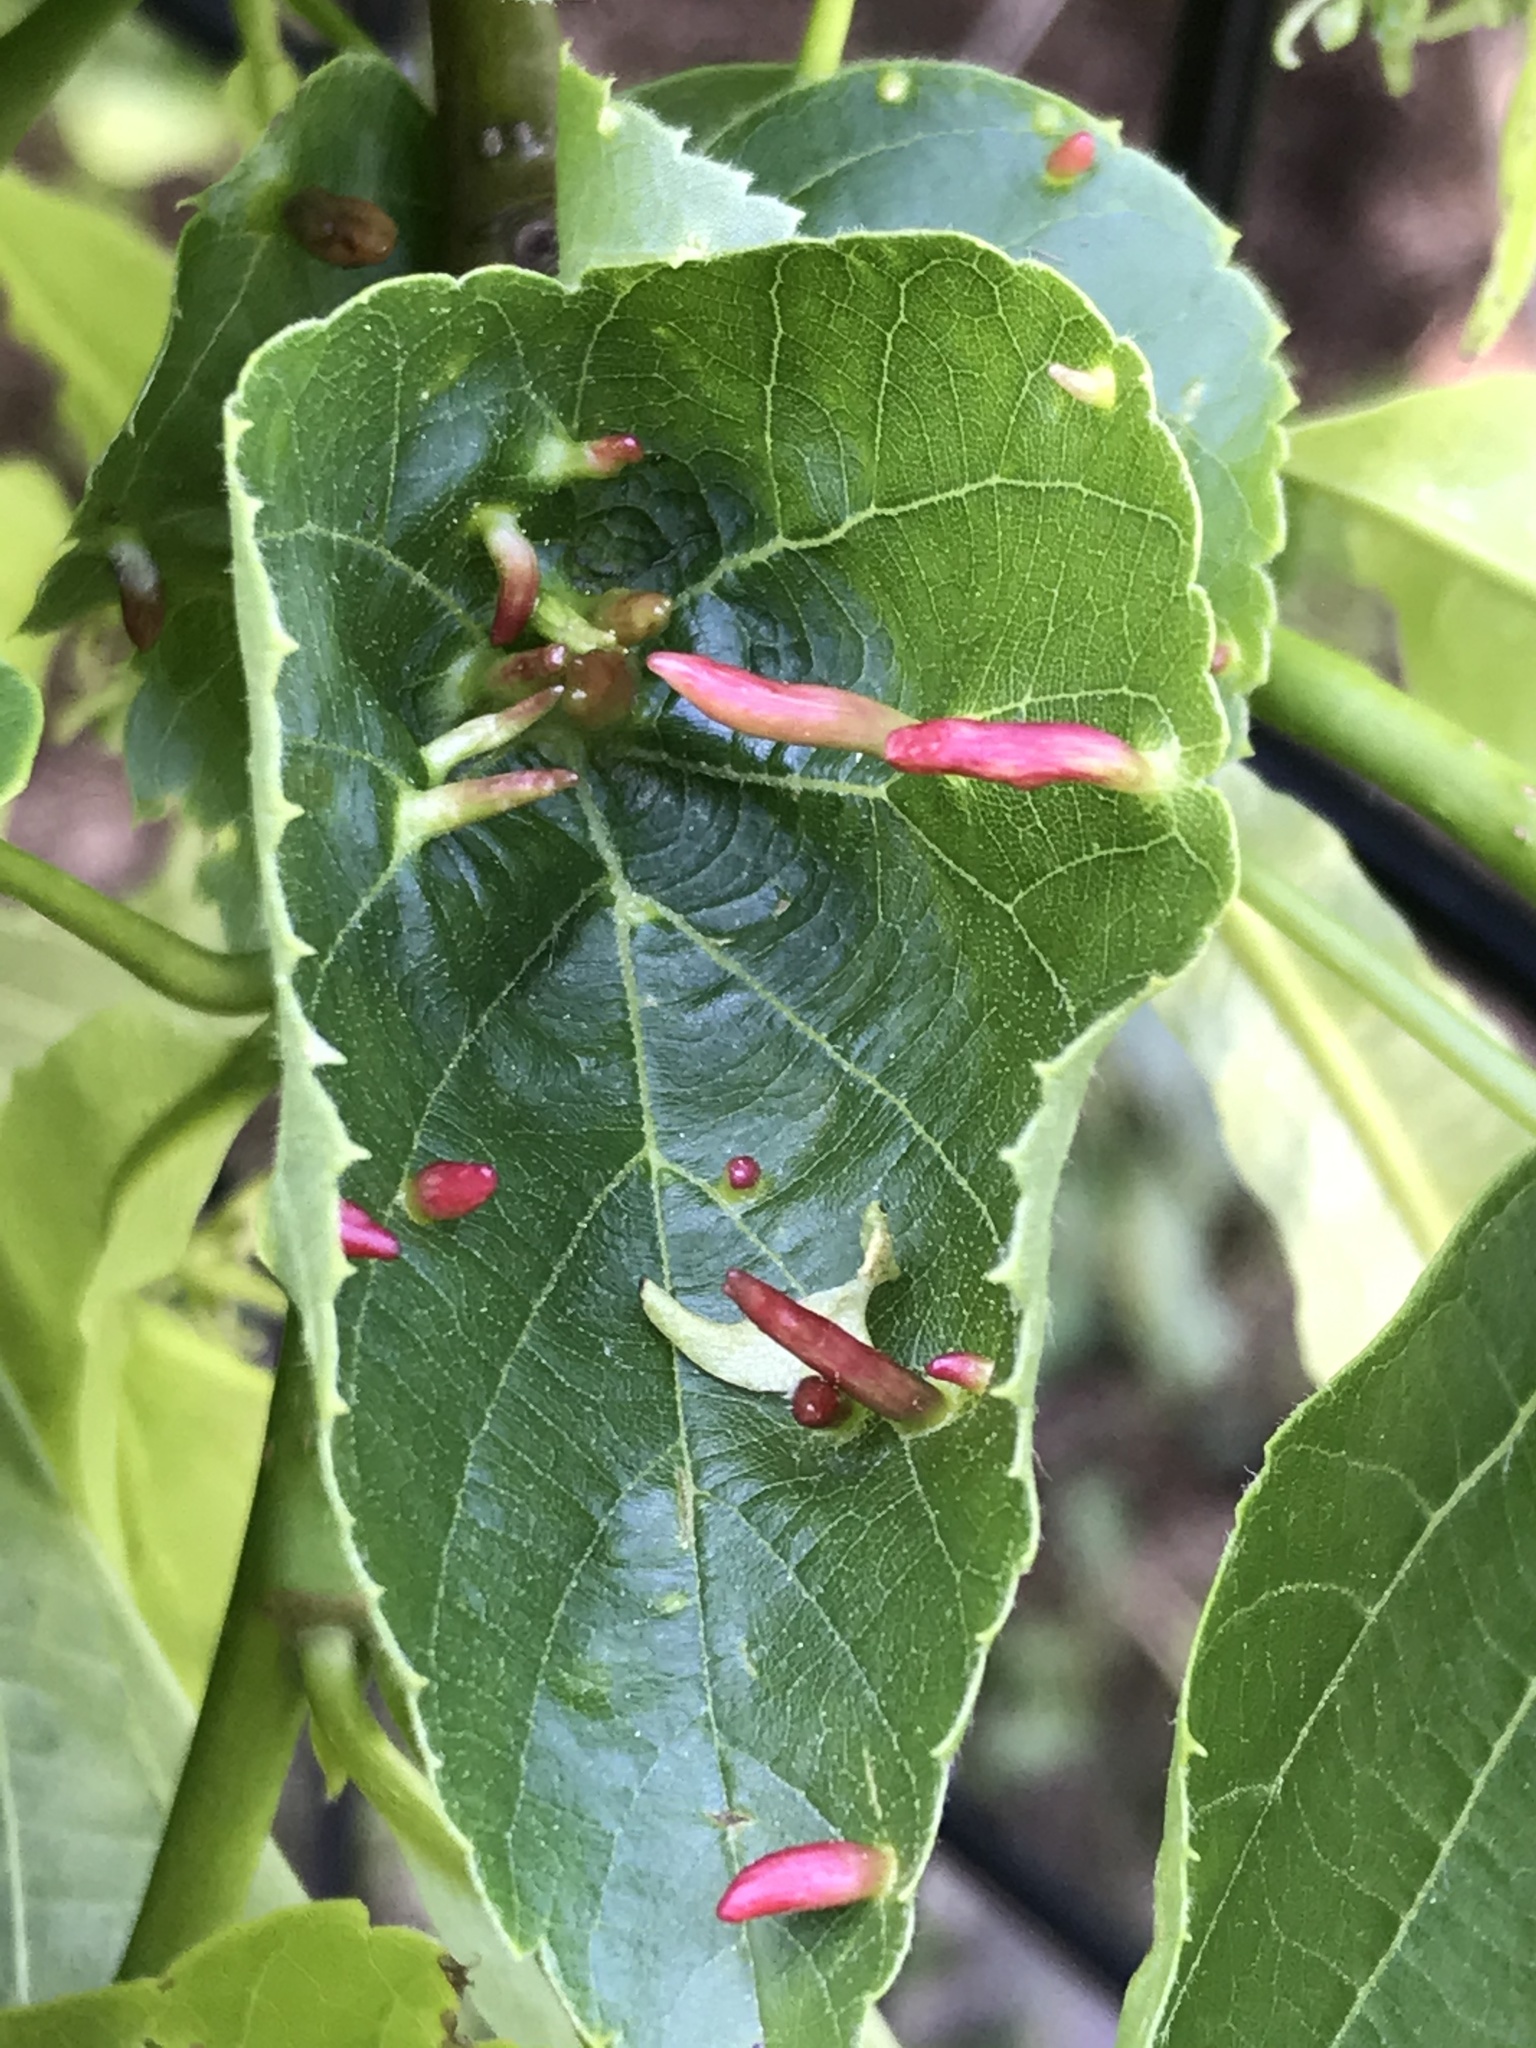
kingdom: Animalia
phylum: Arthropoda
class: Arachnida
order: Trombidiformes
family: Eriophyidae
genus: Eriophyes
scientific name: Eriophyes tiliae
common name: Red nail gall mite
